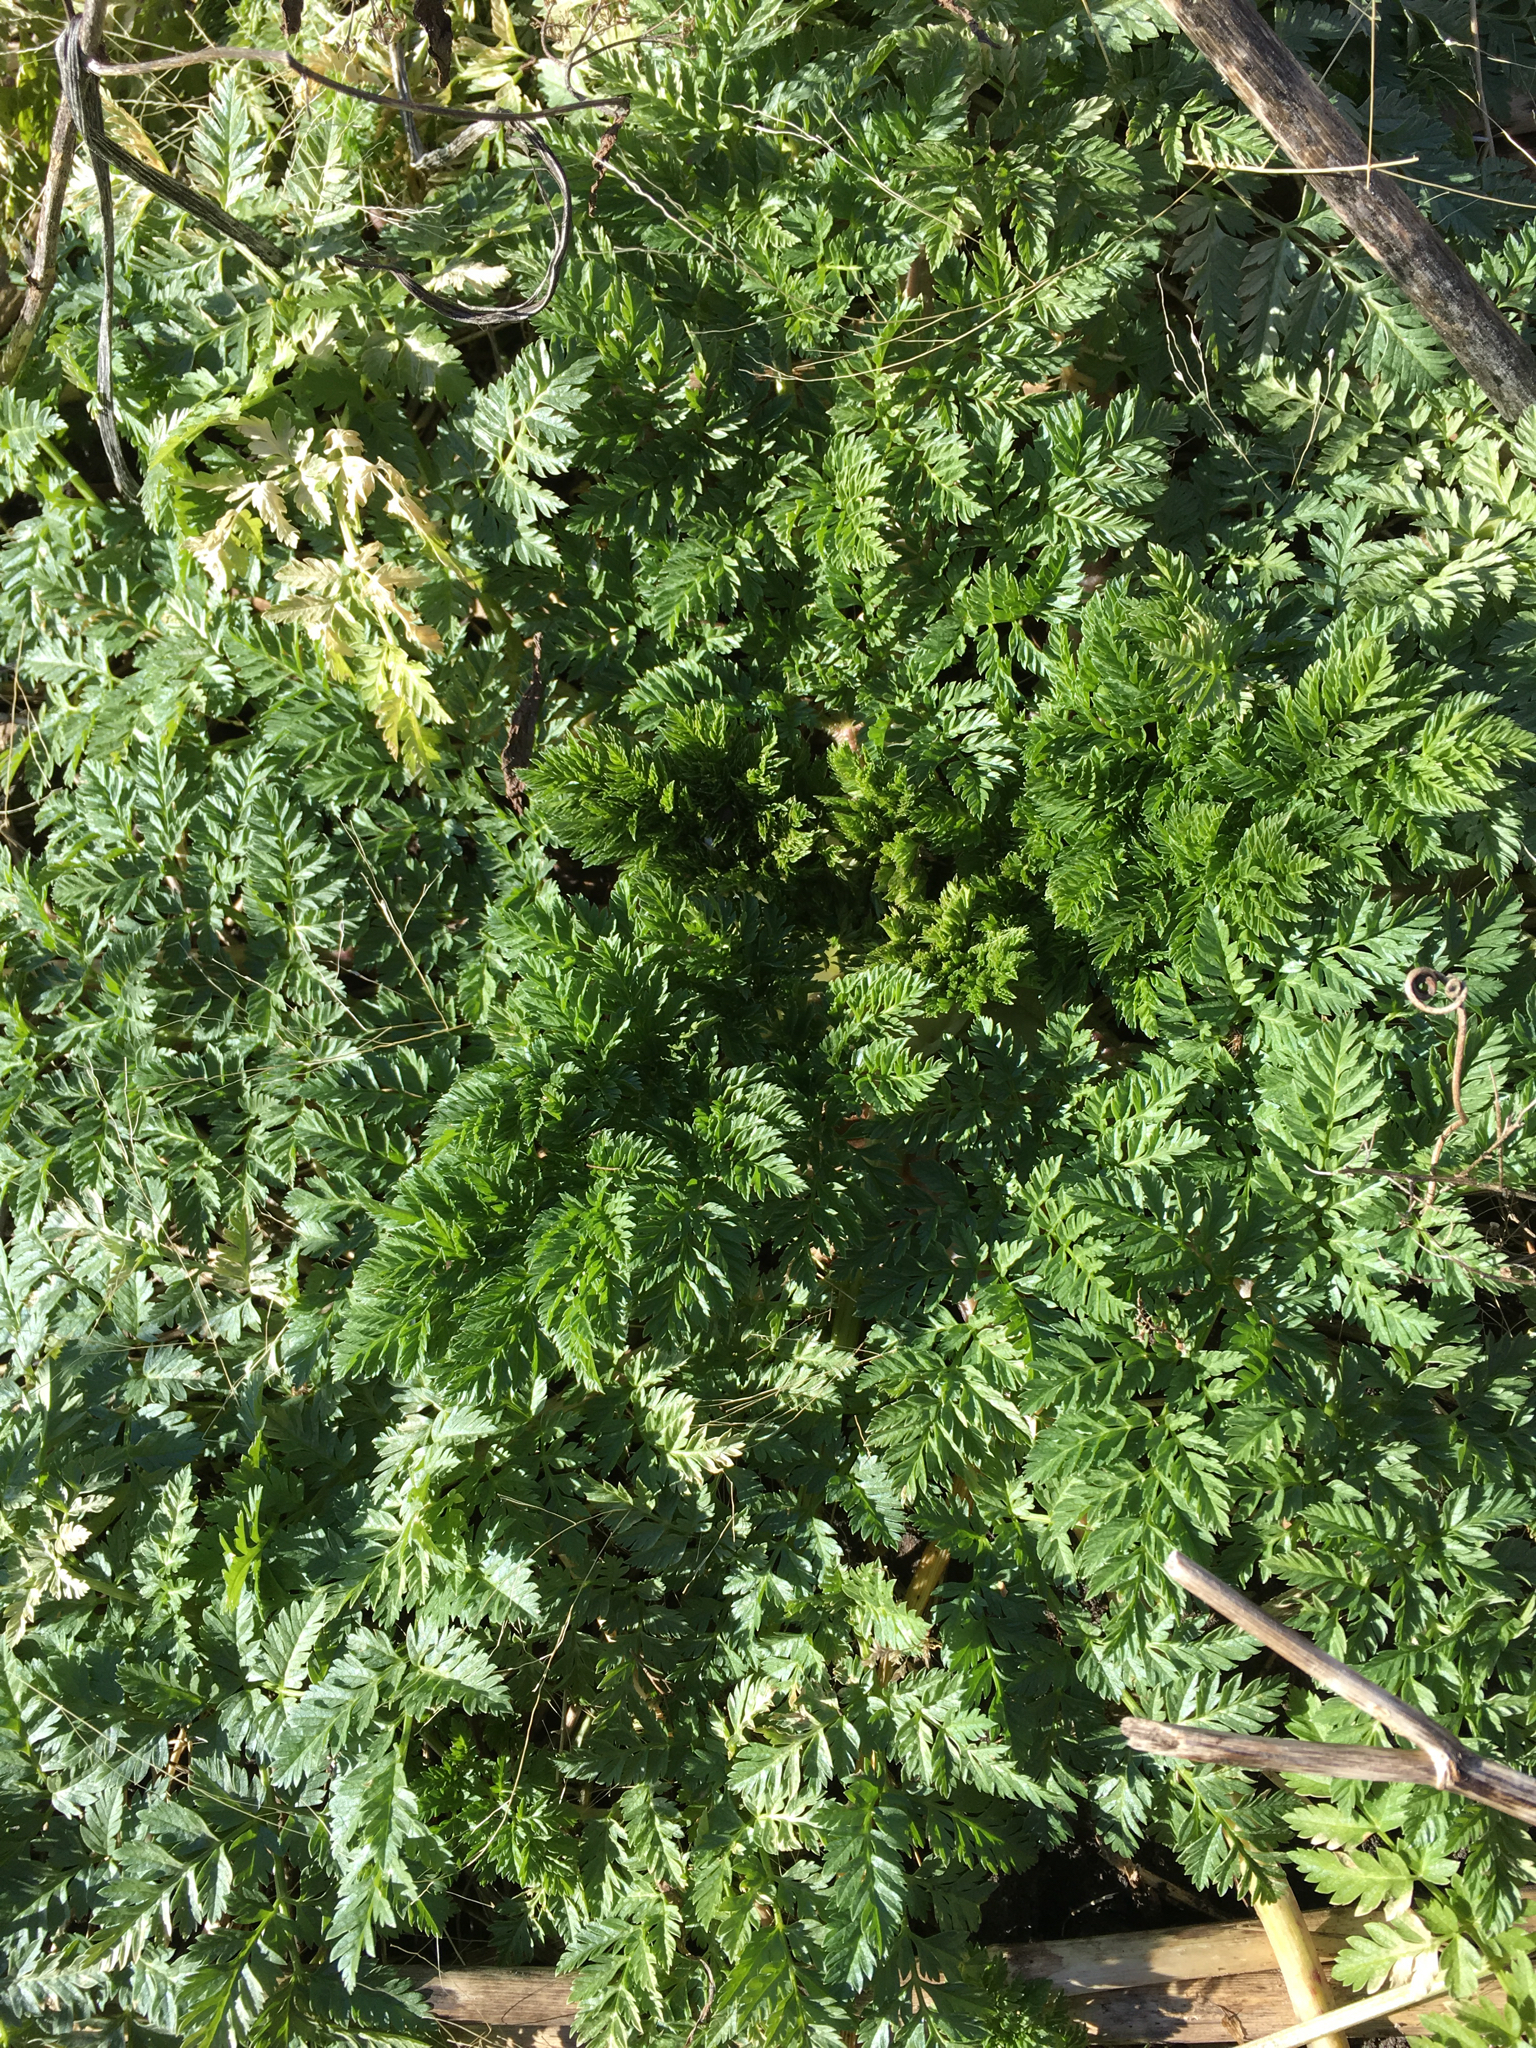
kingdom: Plantae
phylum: Tracheophyta
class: Magnoliopsida
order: Apiales
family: Apiaceae
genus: Conium
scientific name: Conium maculatum
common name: Hemlock
